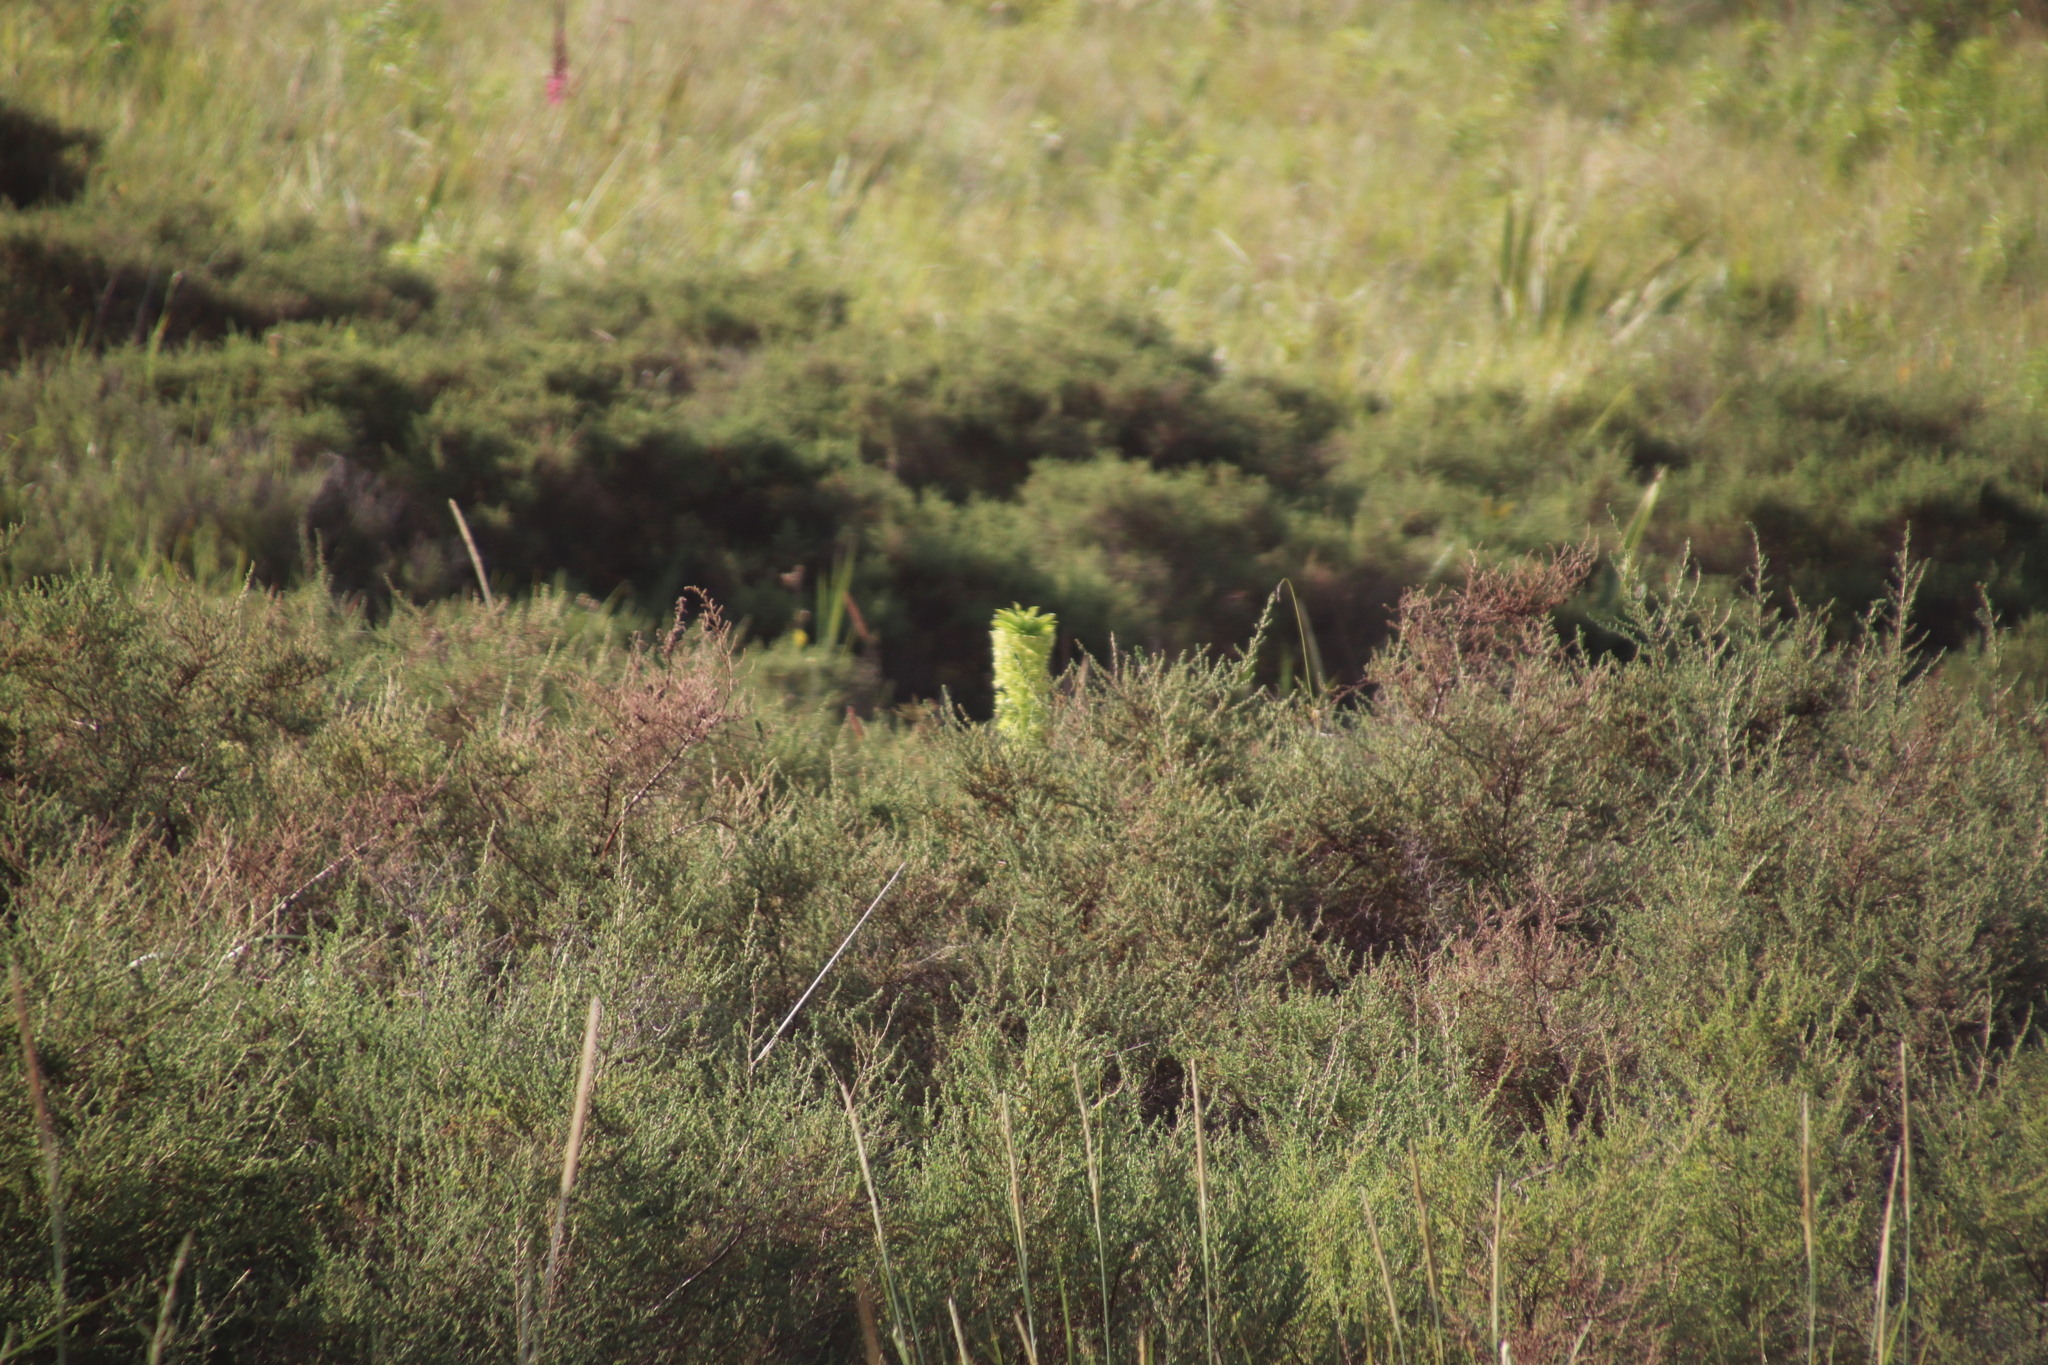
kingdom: Plantae
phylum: Tracheophyta
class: Liliopsida
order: Asparagales
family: Asparagaceae
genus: Eucomis
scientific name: Eucomis autumnalis
